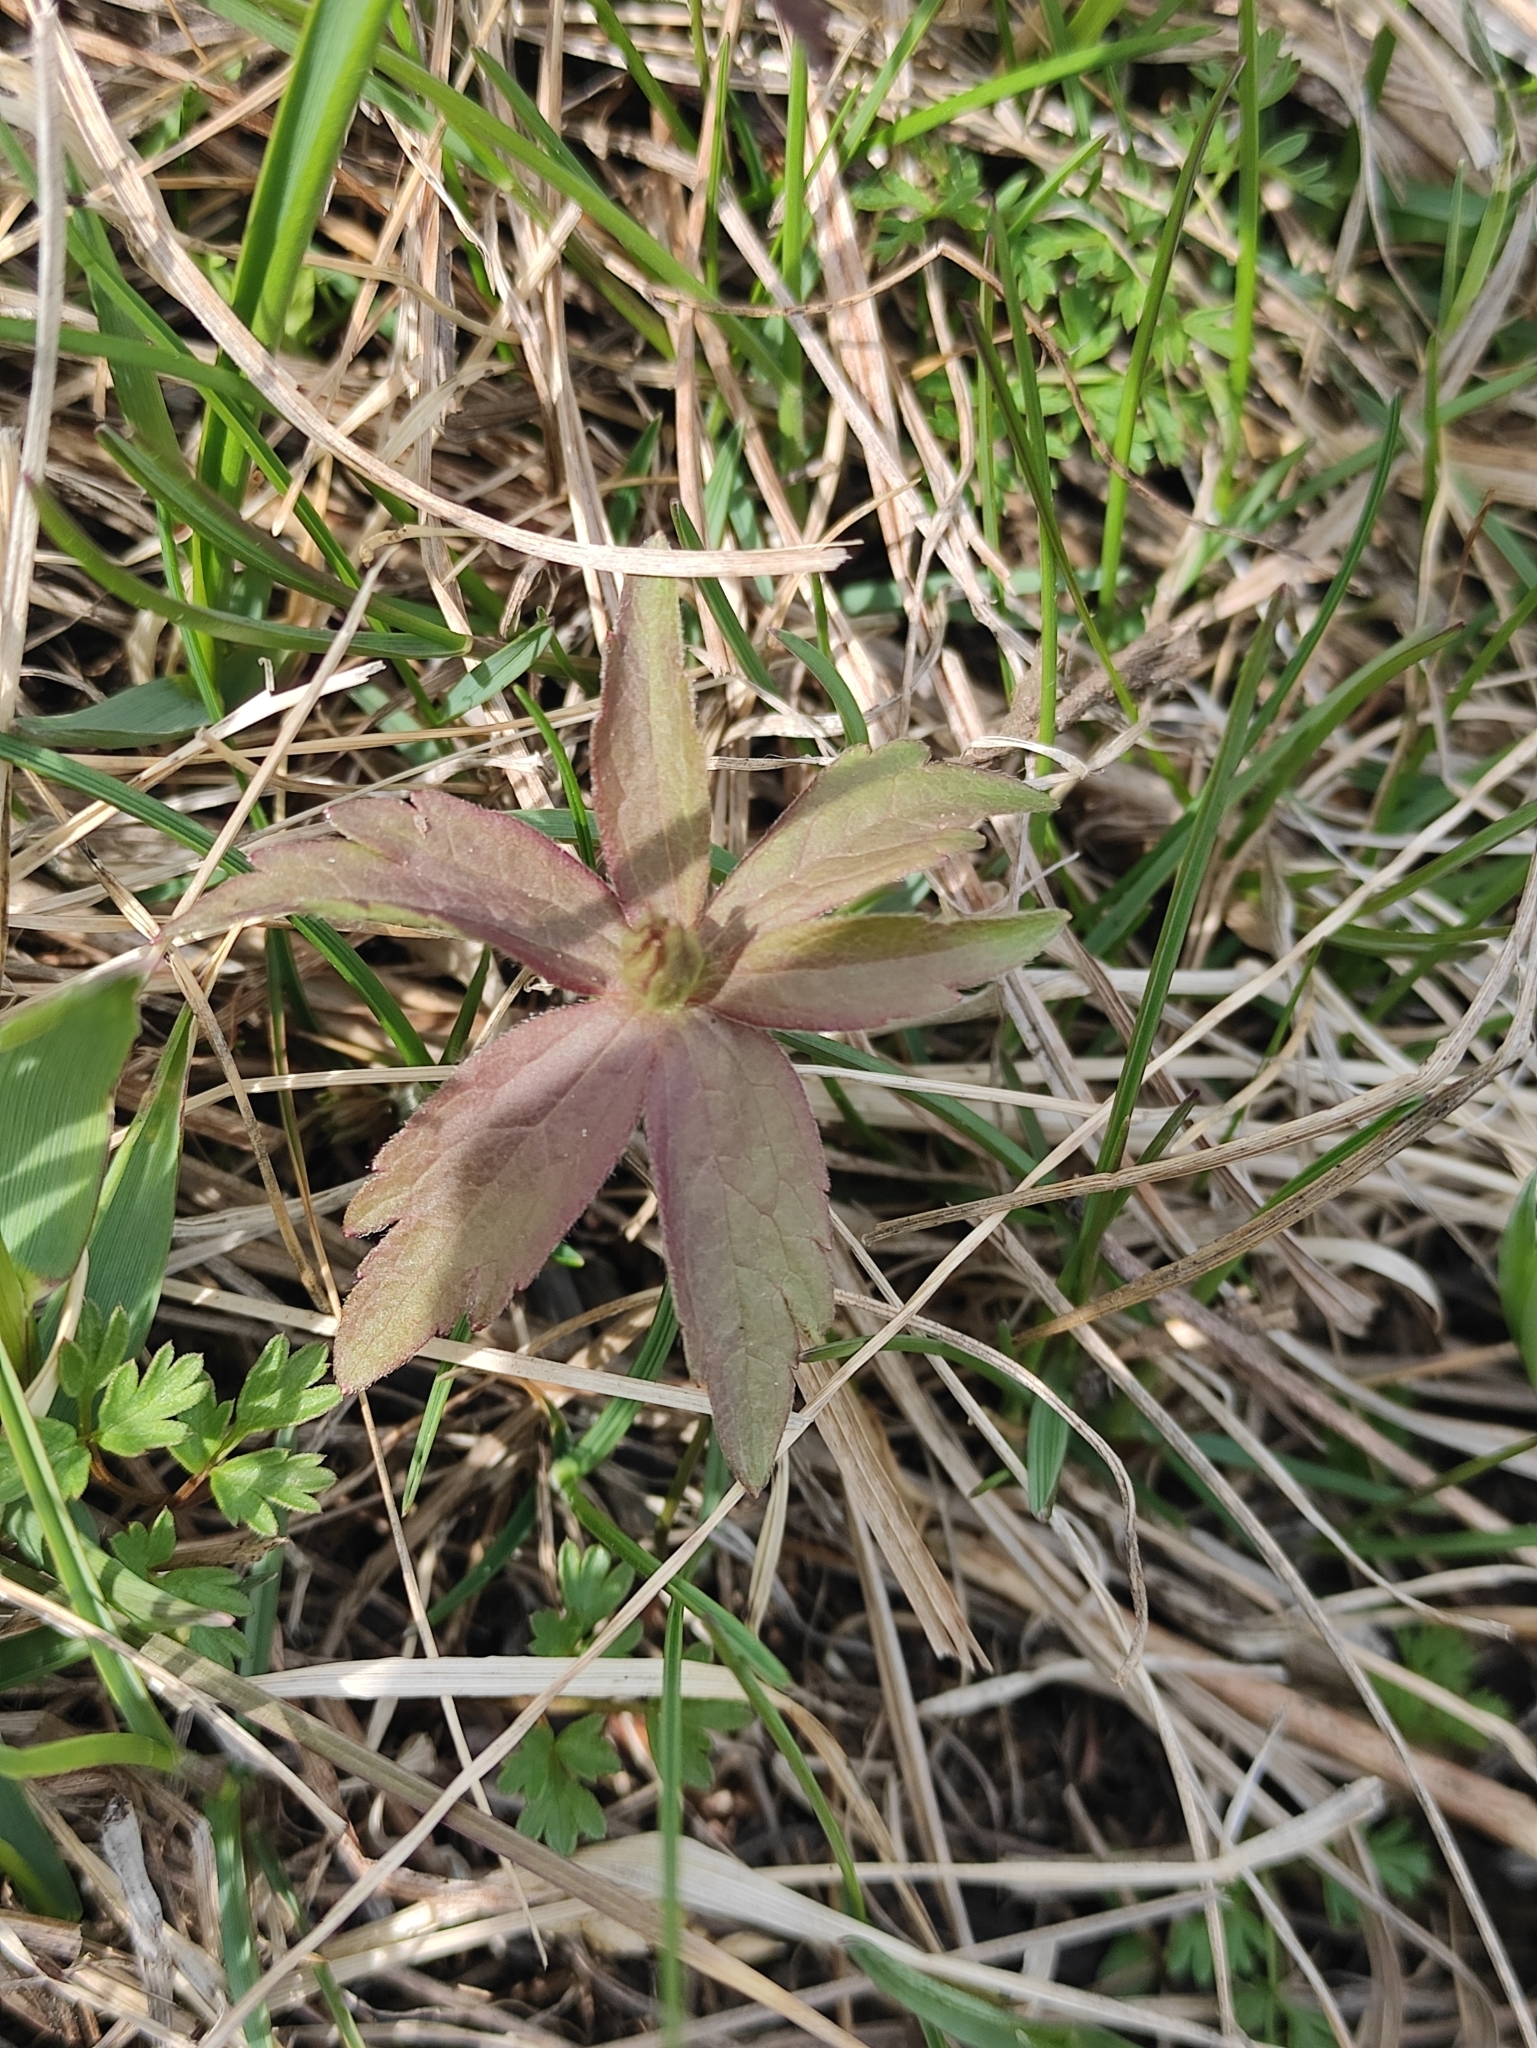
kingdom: Plantae
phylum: Tracheophyta
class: Magnoliopsida
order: Ranunculales
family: Ranunculaceae
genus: Anemonastrum
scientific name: Anemonastrum dichotomum
